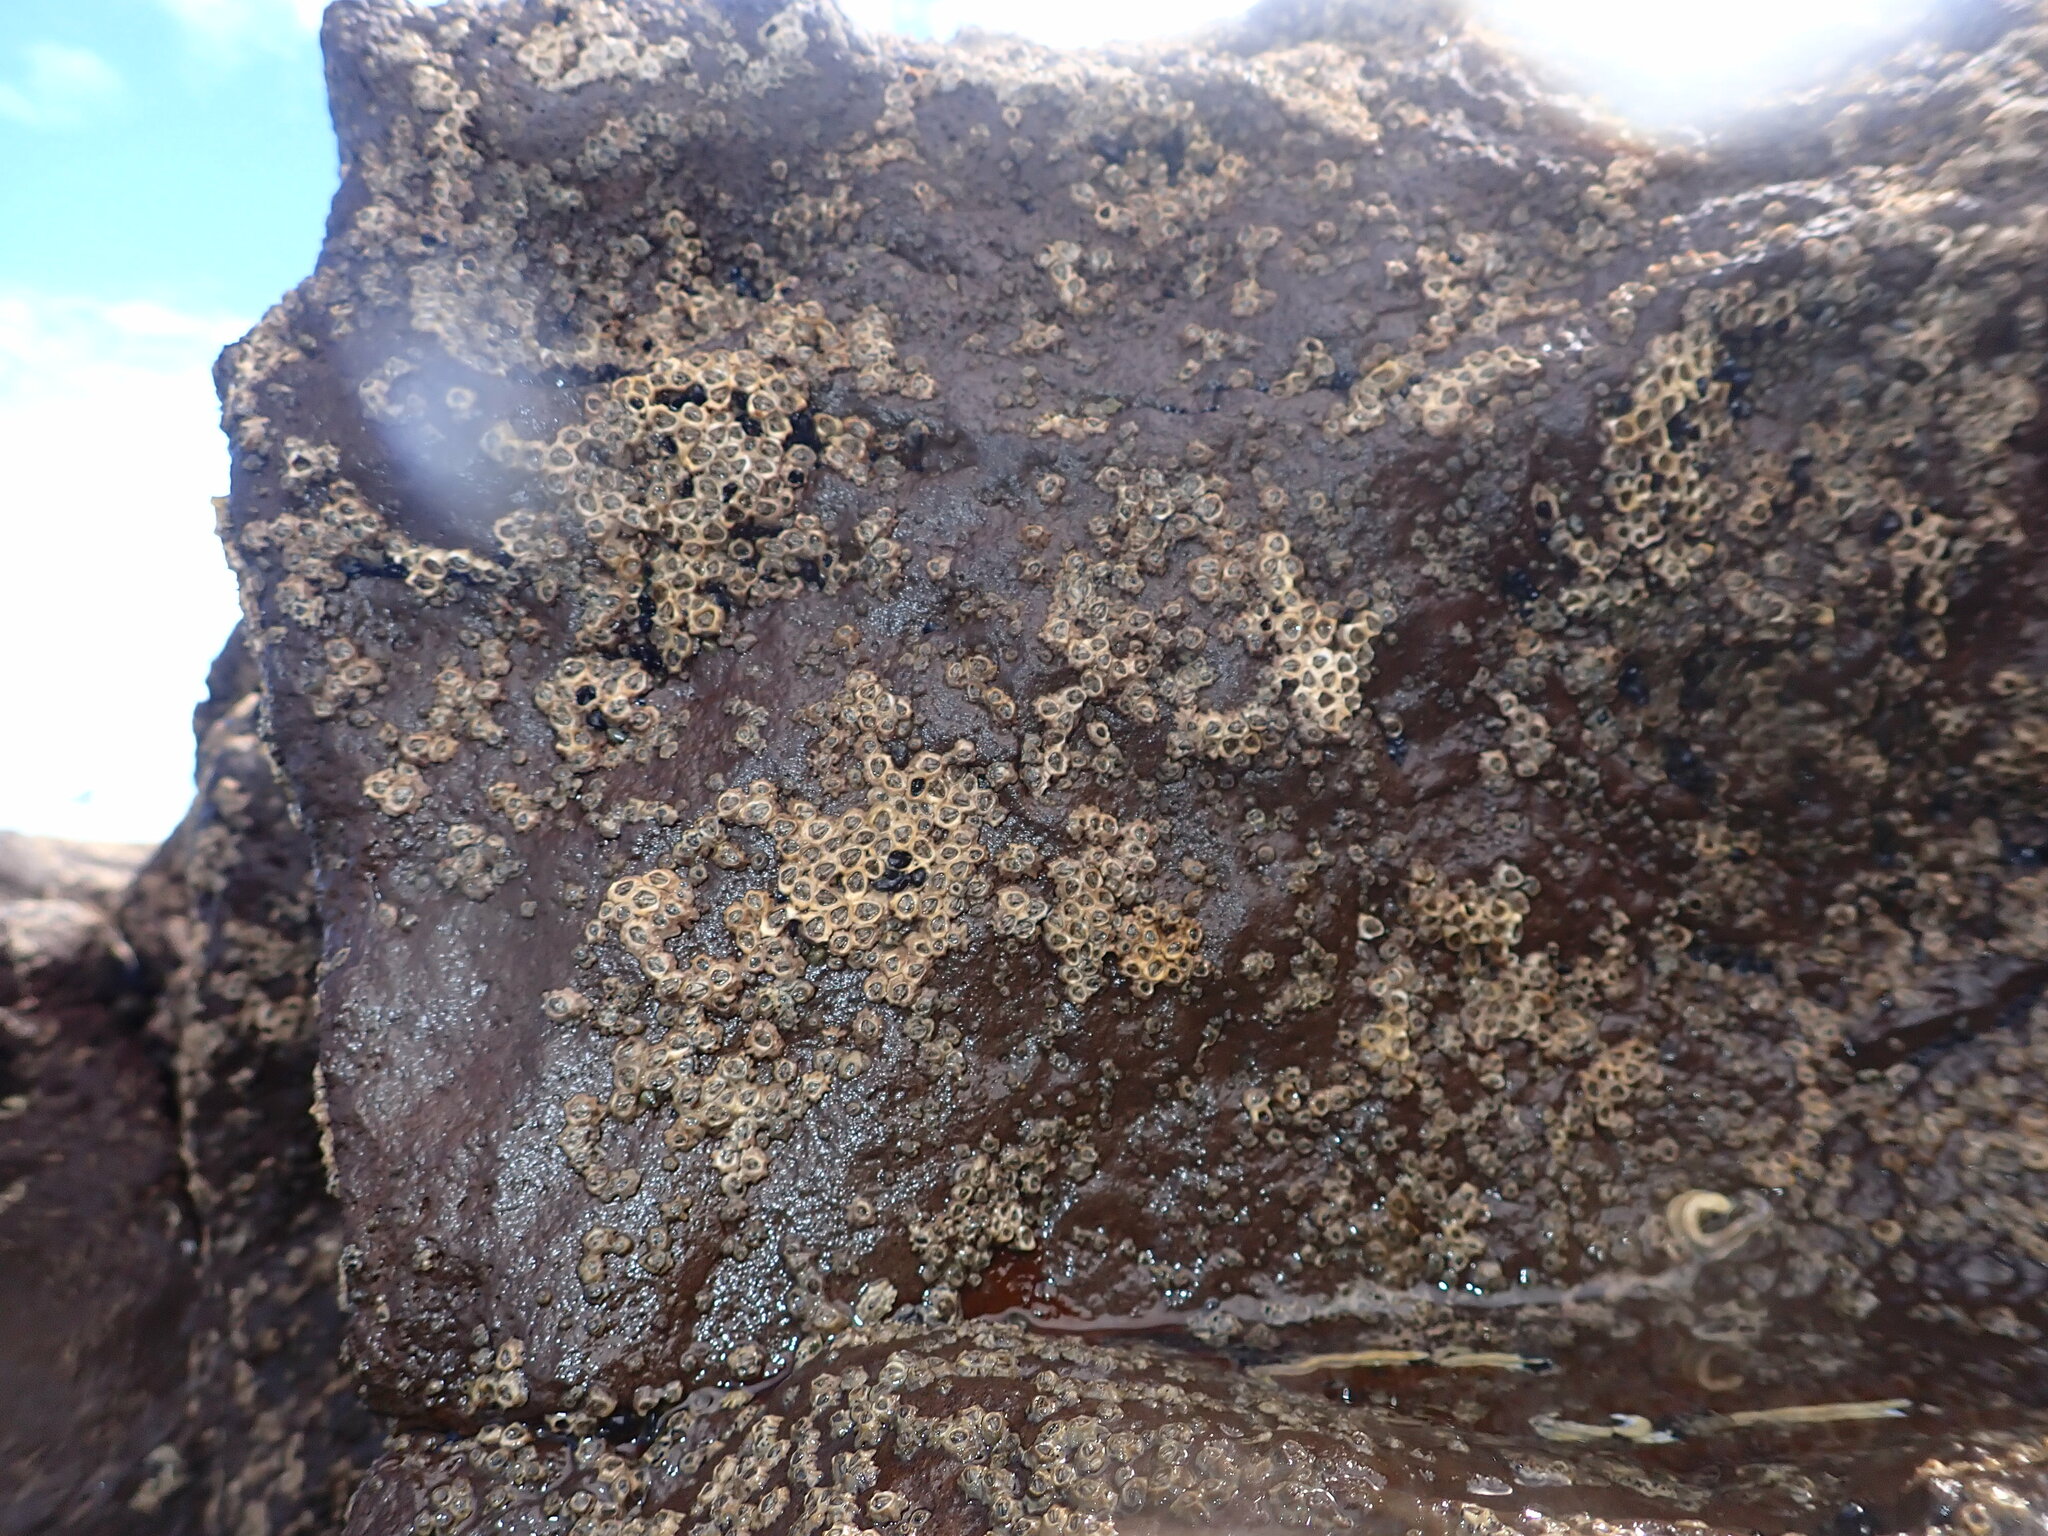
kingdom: Animalia
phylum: Arthropoda
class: Maxillopoda
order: Sessilia
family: Chthamalidae
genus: Chamaesipho
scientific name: Chamaesipho columna
